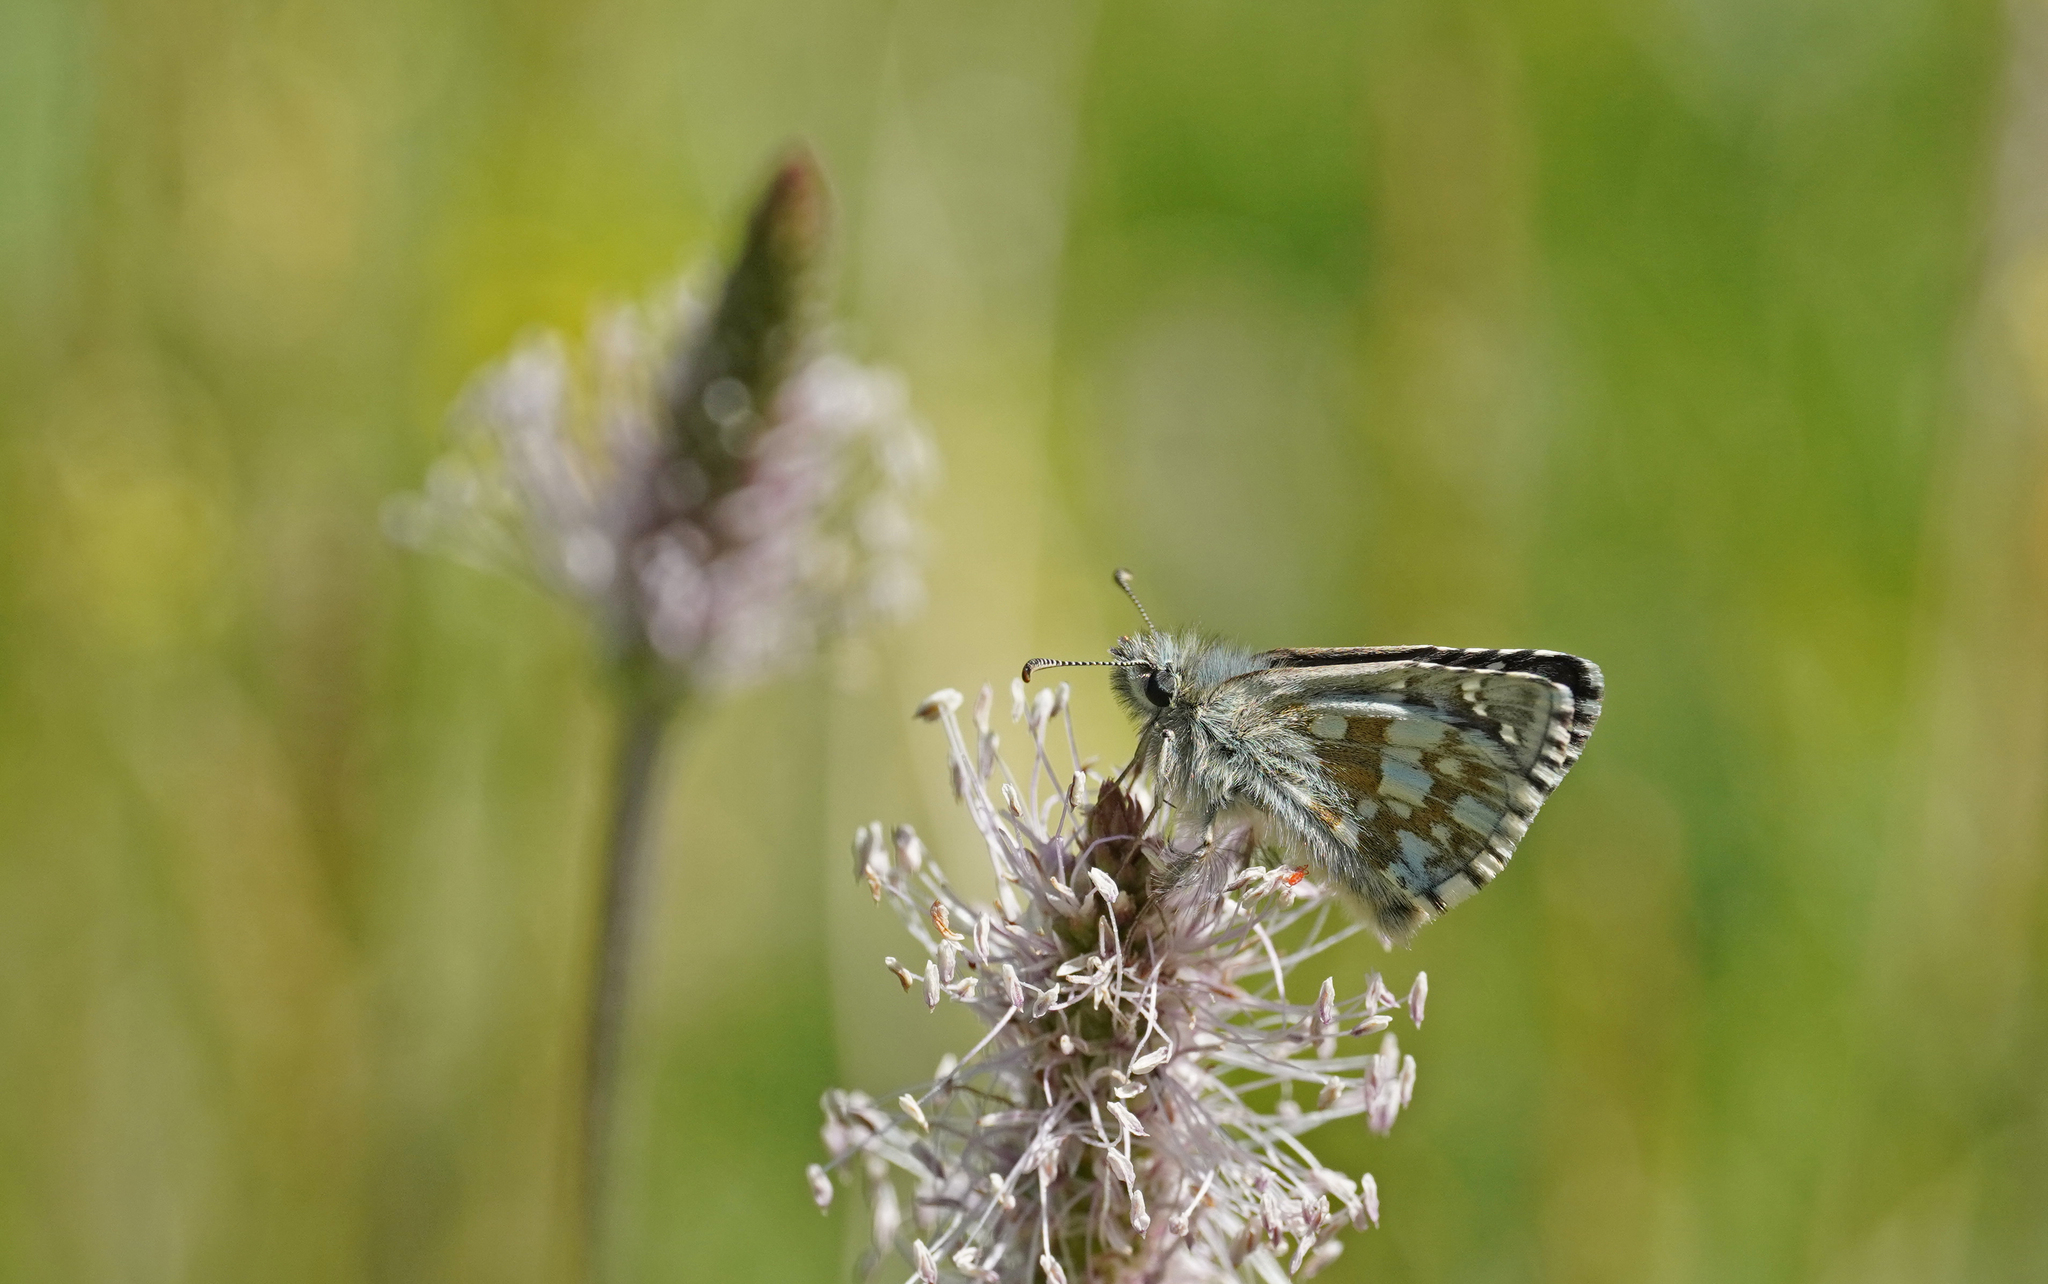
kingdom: Animalia
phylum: Arthropoda
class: Insecta
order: Lepidoptera
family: Hesperiidae
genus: Pyrgus
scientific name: Pyrgus serratulae
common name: Olive skipper
